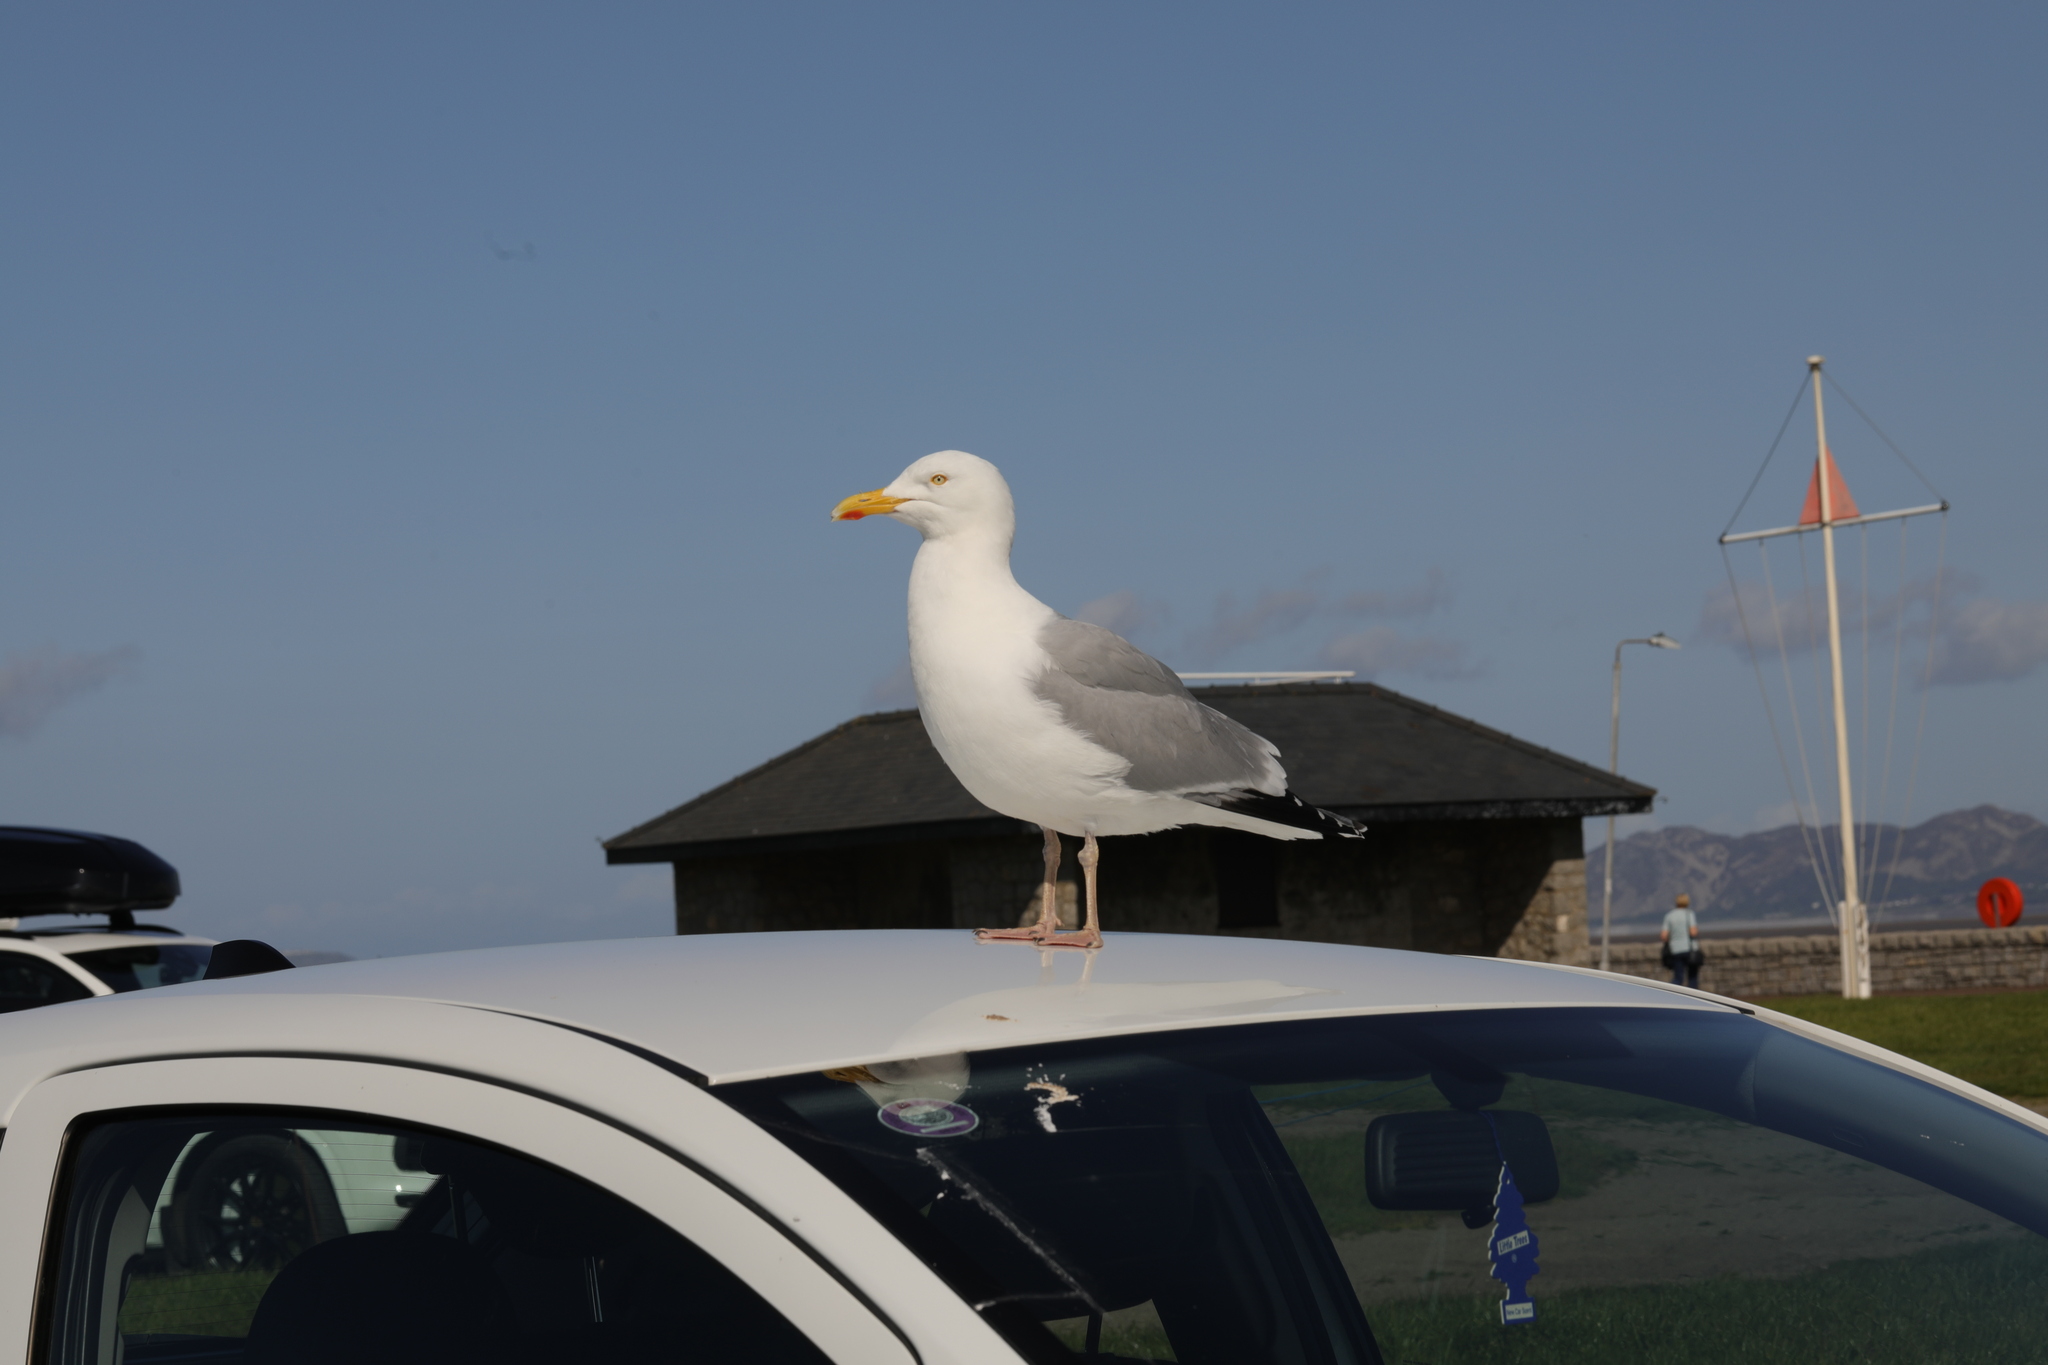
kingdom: Animalia
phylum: Chordata
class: Aves
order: Charadriiformes
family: Laridae
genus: Larus
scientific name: Larus argentatus
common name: Herring gull
